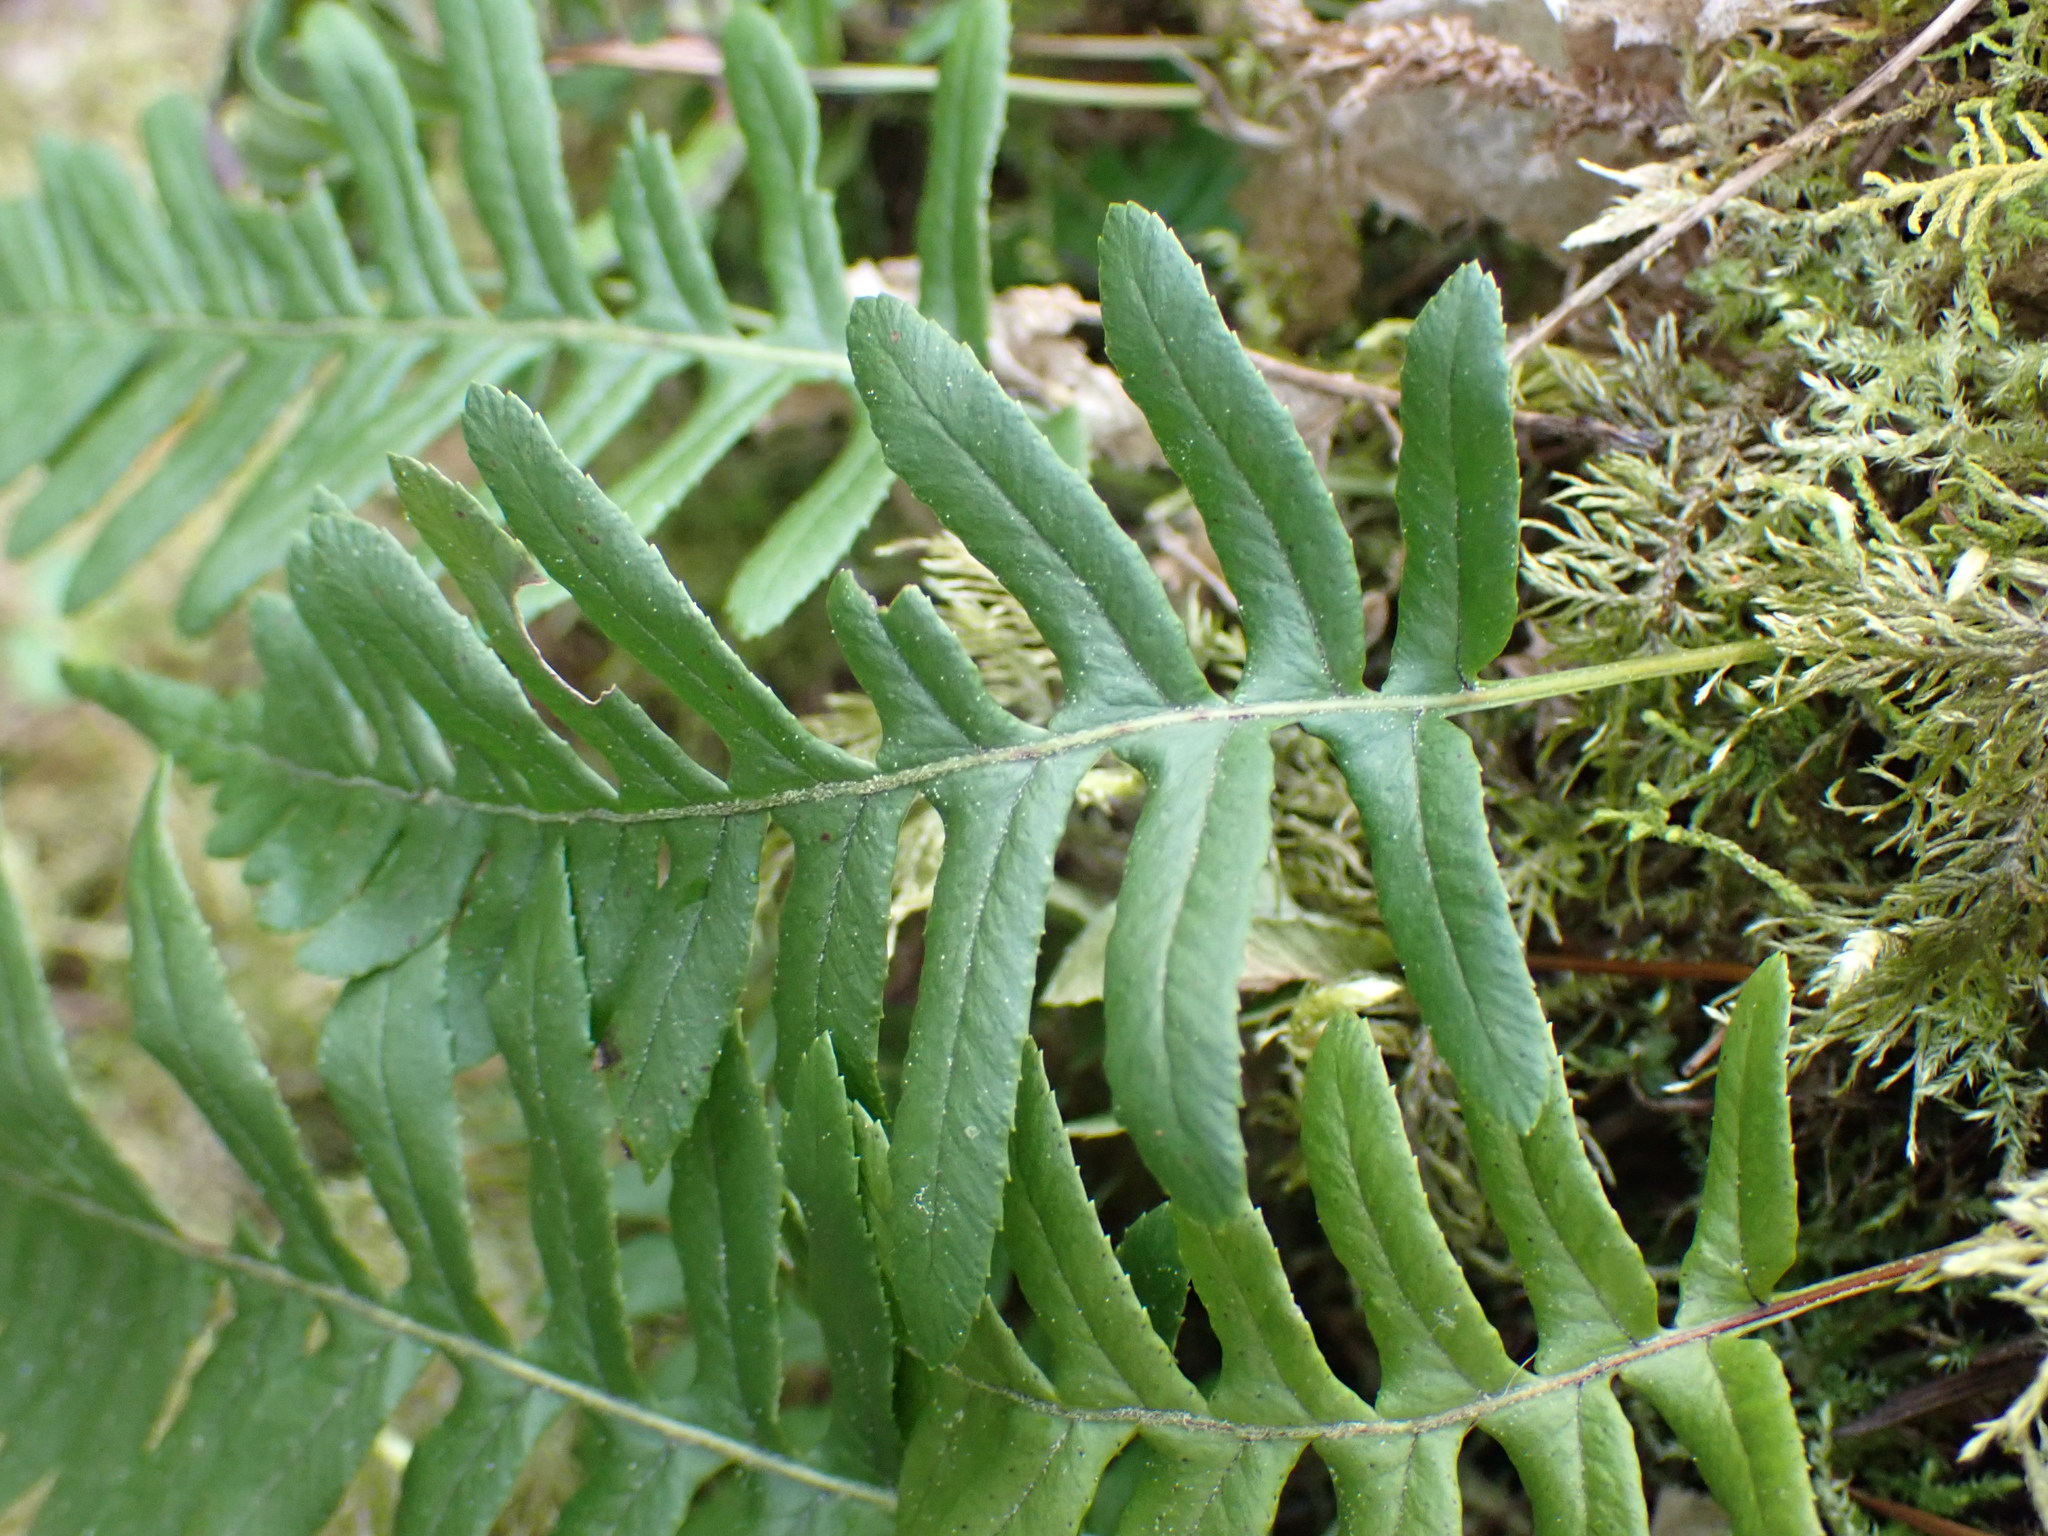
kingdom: Plantae
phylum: Tracheophyta
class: Polypodiopsida
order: Polypodiales
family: Polypodiaceae
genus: Polypodium
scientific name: Polypodium glycyrrhiza
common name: Licorice fern
